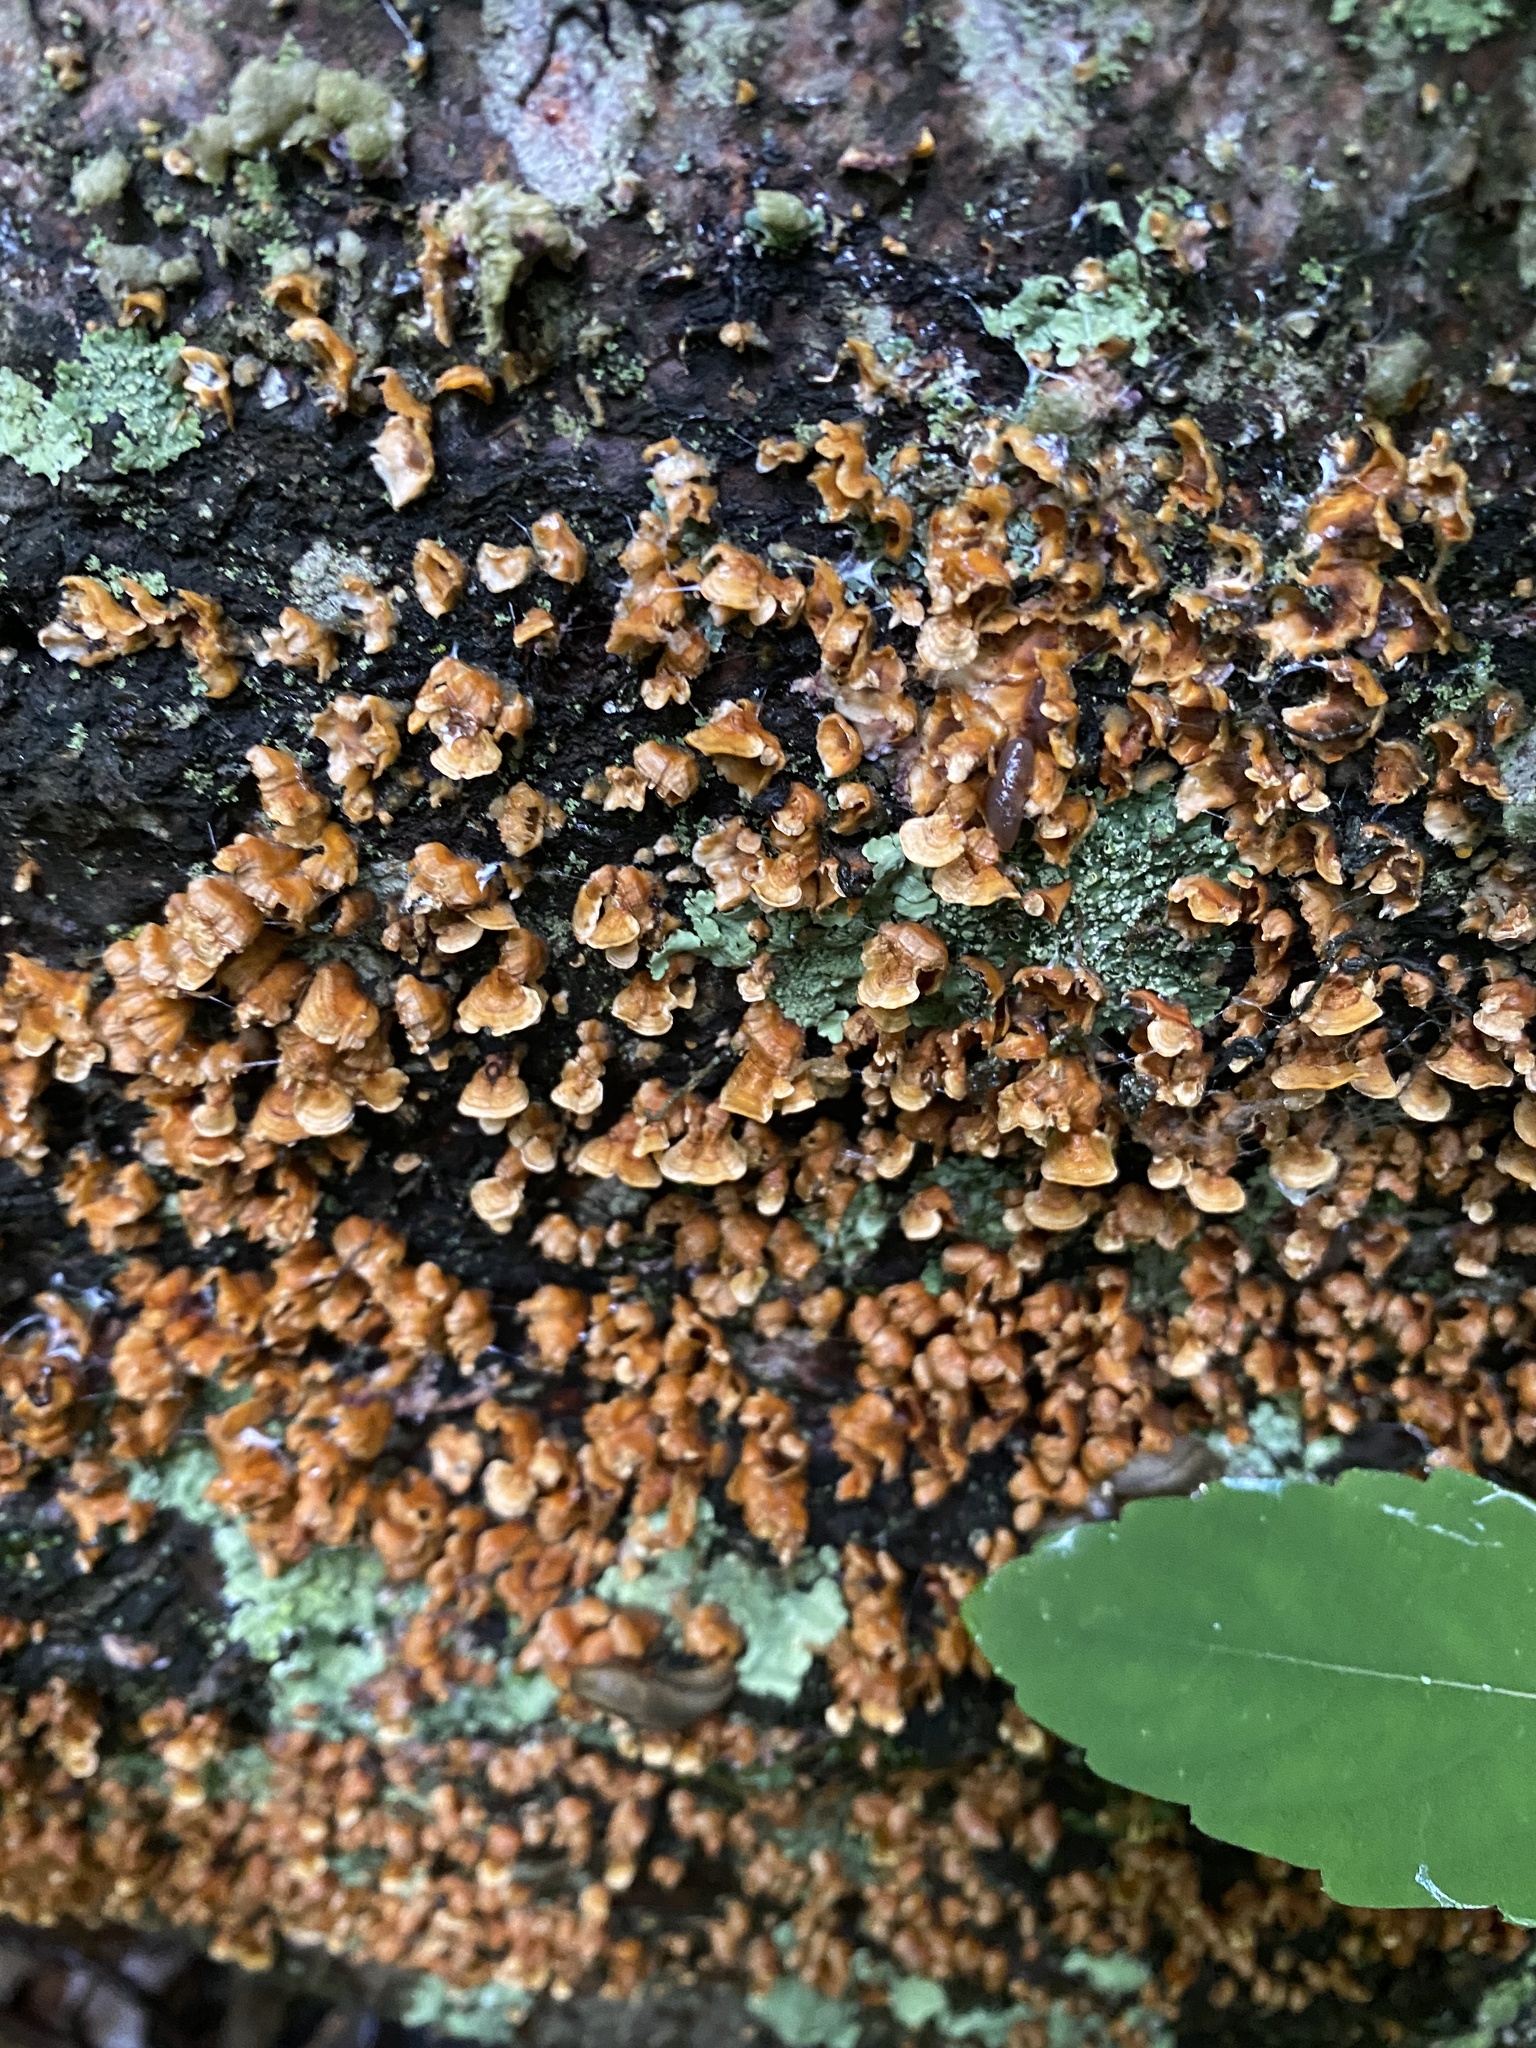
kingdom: Fungi
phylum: Basidiomycota
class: Agaricomycetes
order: Russulales
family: Stereaceae
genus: Stereum
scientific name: Stereum complicatum
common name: Crowded parchment
